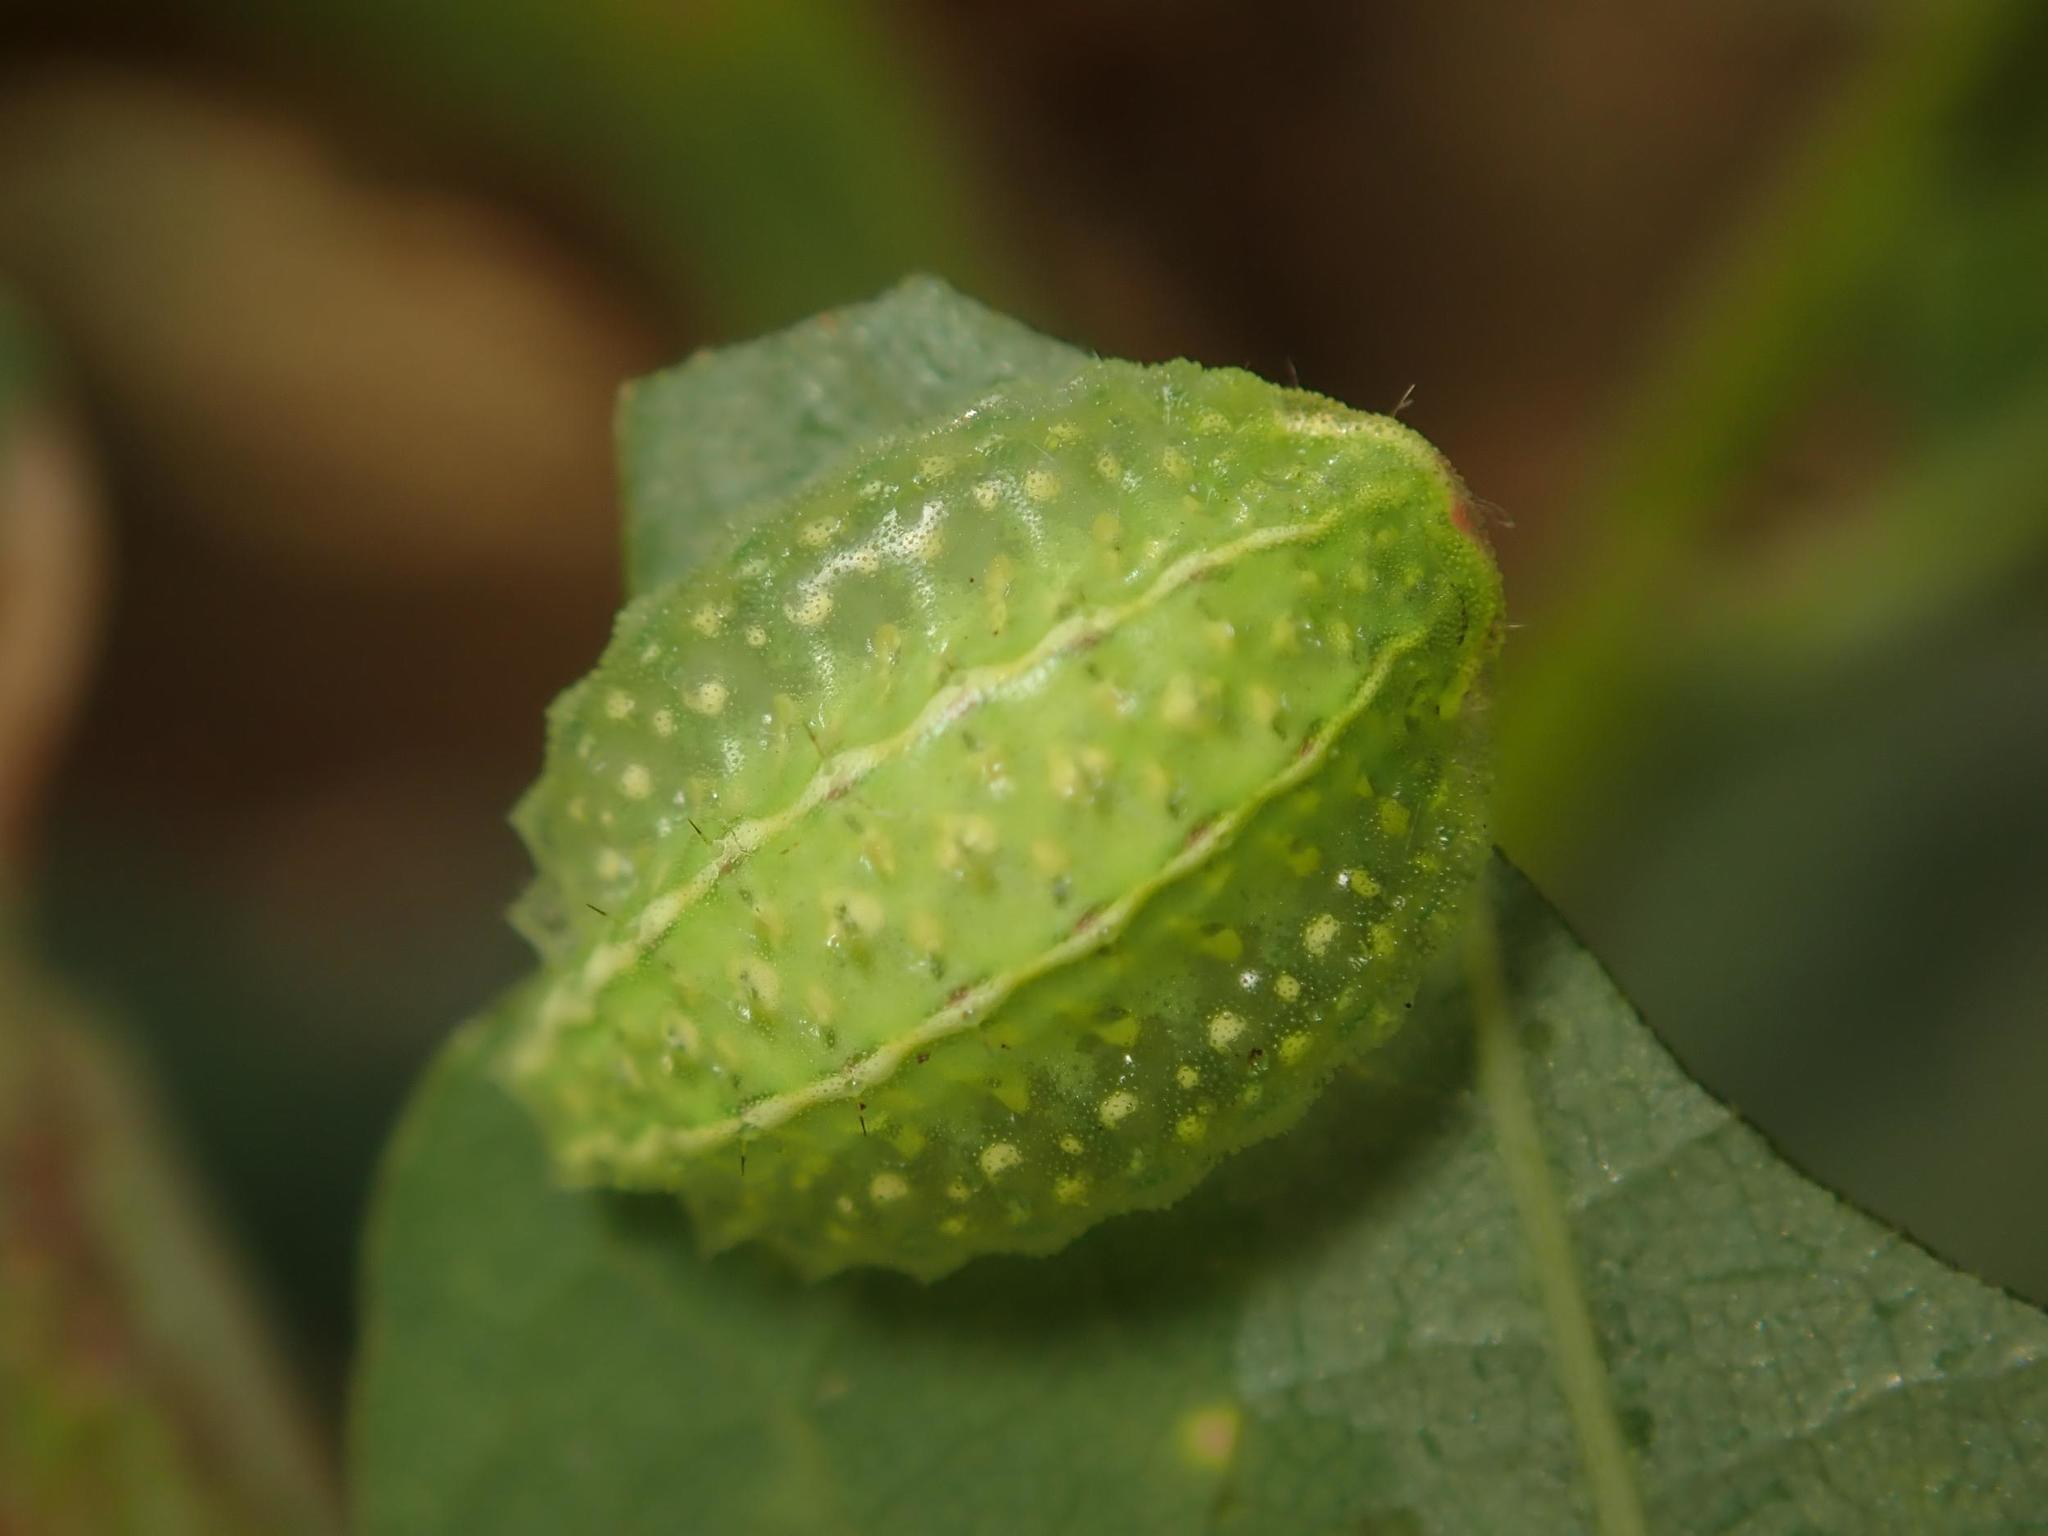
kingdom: Animalia
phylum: Arthropoda
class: Insecta
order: Lepidoptera
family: Limacodidae
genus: Apoda
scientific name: Apoda limacodes
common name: Festoon
